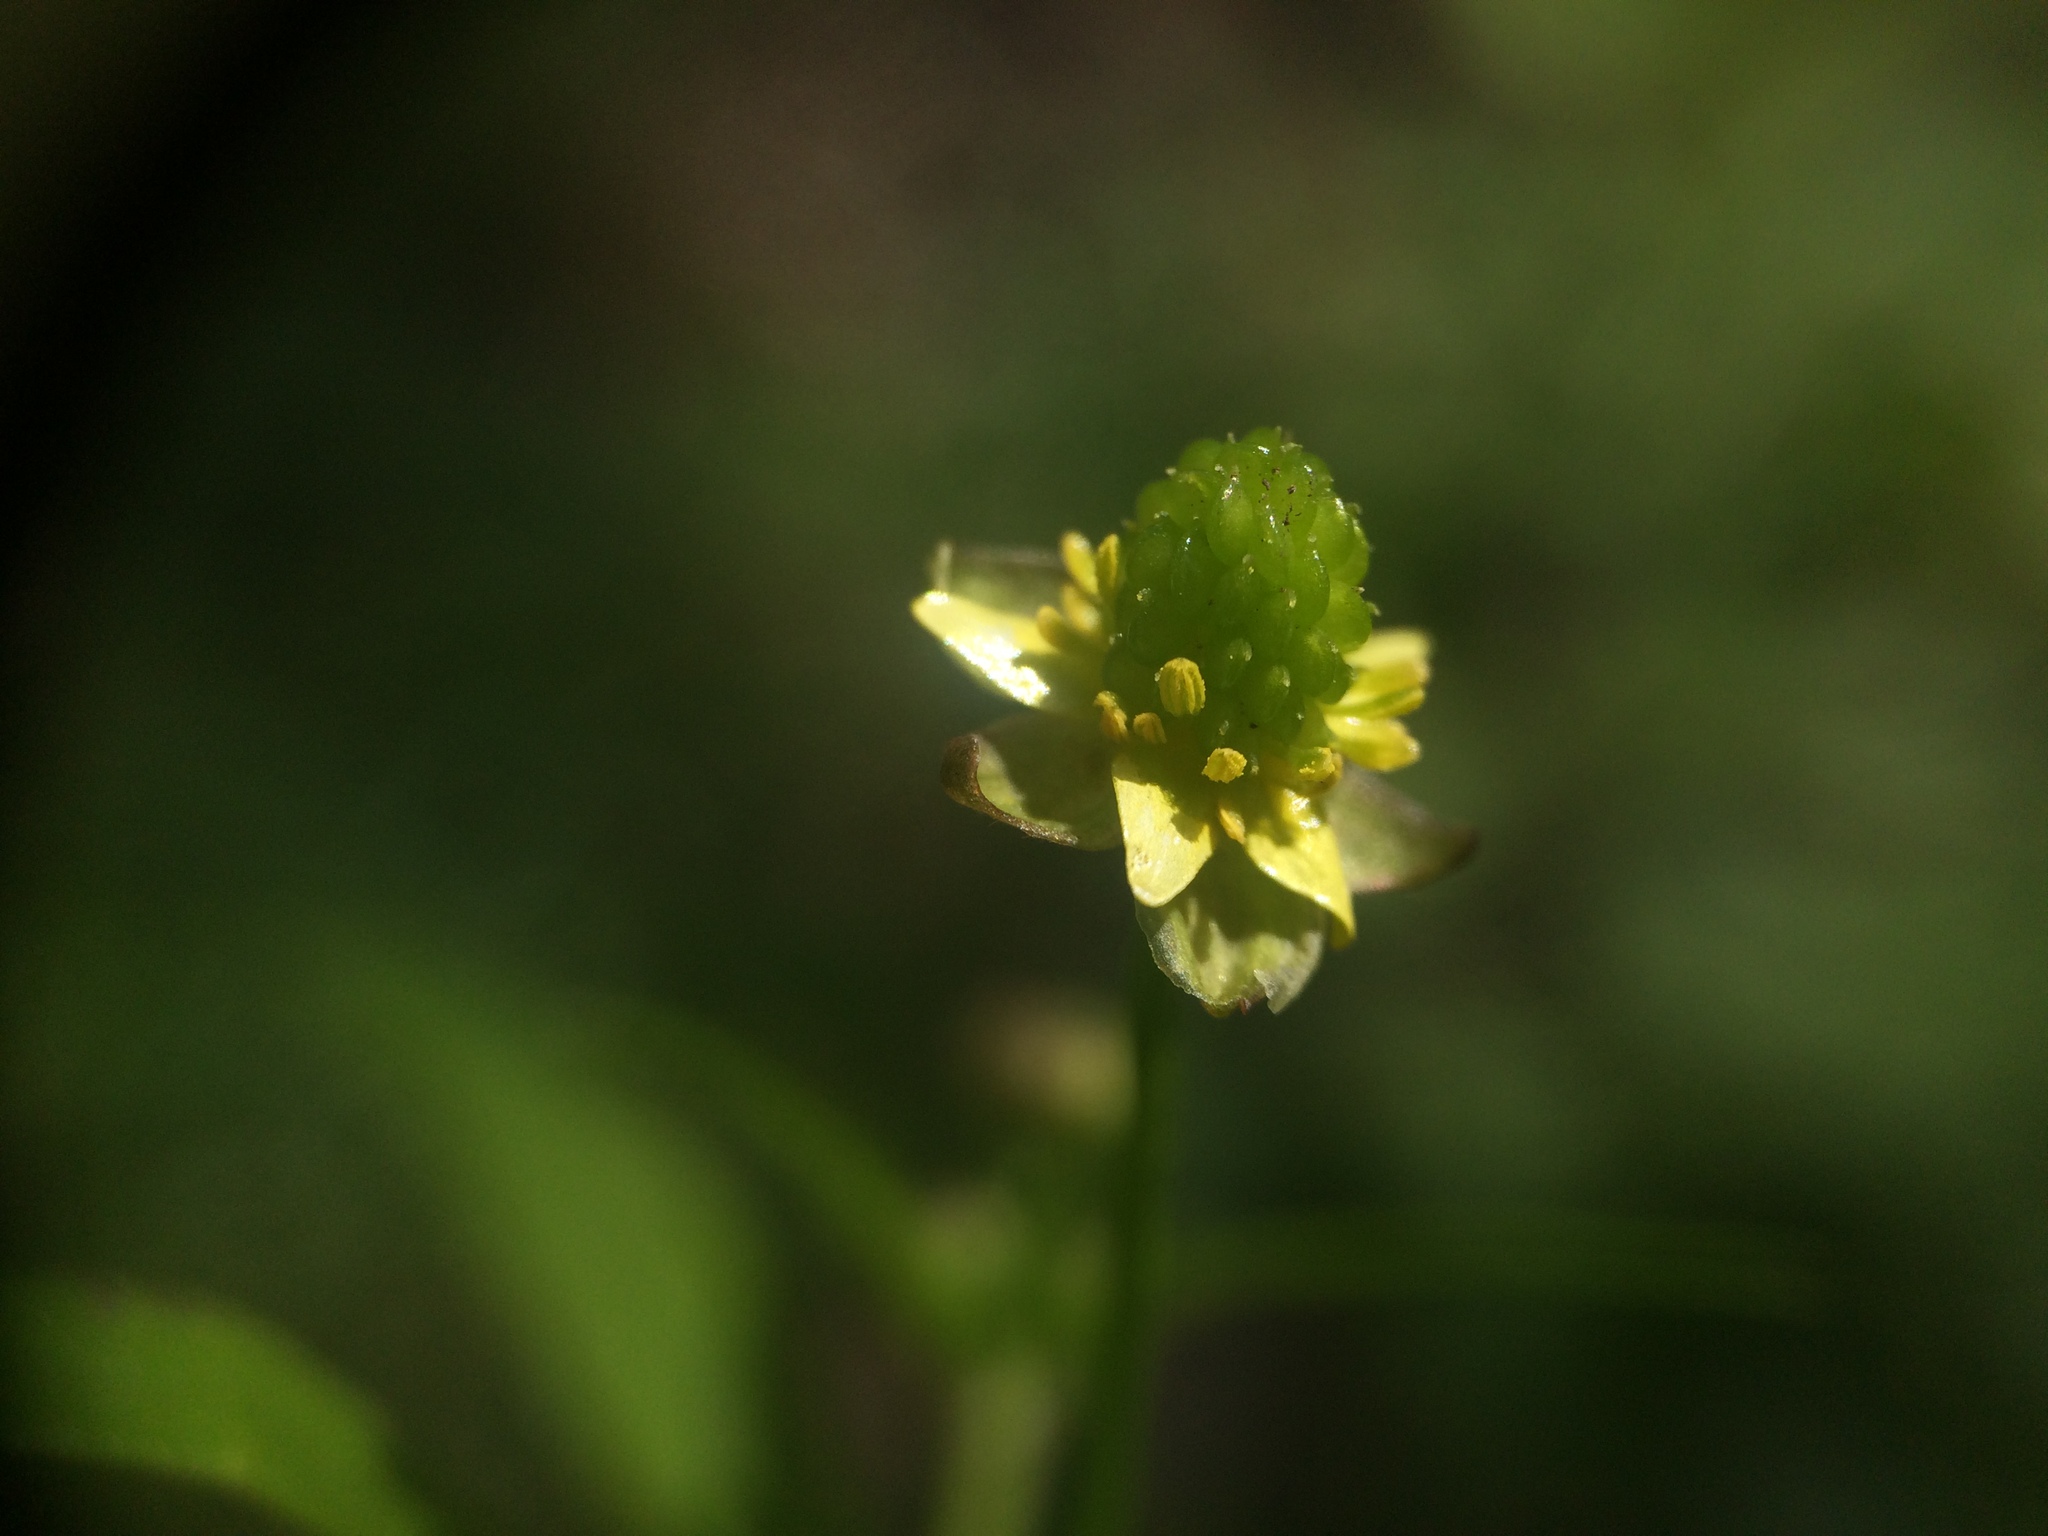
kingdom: Plantae
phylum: Tracheophyta
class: Magnoliopsida
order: Ranunculales
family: Ranunculaceae
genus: Ranunculus
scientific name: Ranunculus abortivus
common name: Early wood buttercup
